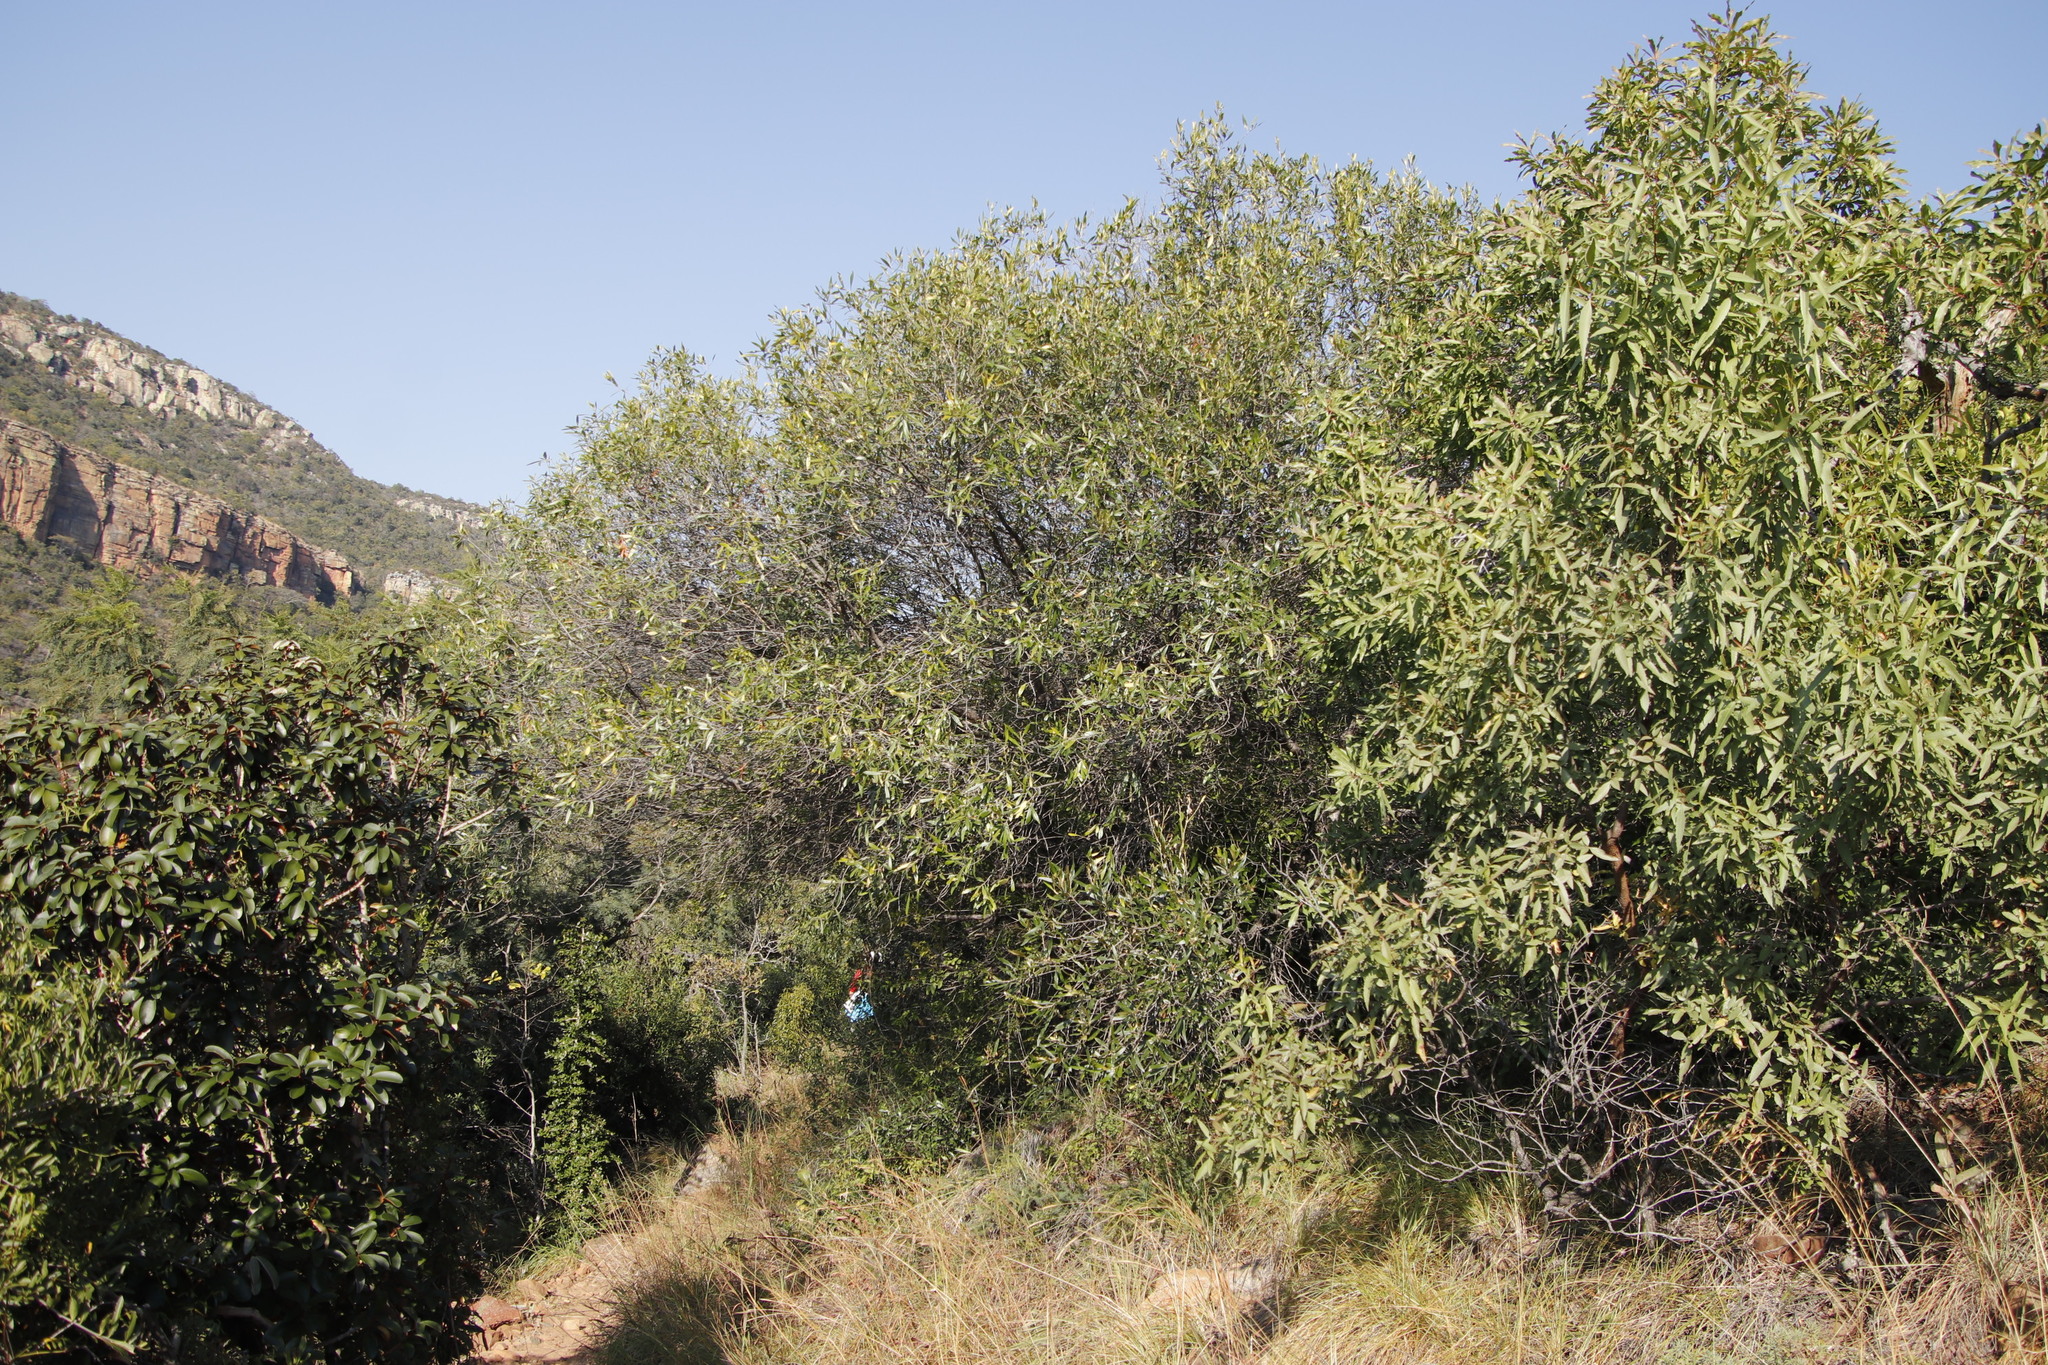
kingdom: Plantae
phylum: Tracheophyta
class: Magnoliopsida
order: Lamiales
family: Oleaceae
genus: Olea
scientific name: Olea europaea
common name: Olive
